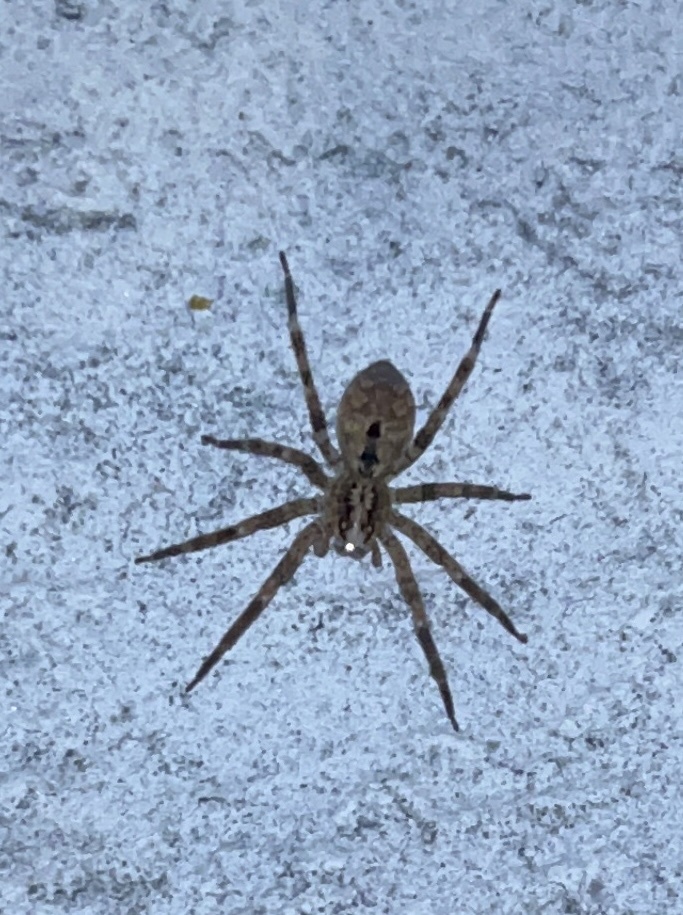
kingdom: Animalia
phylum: Arthropoda
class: Arachnida
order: Araneae
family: Zoropsidae
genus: Zoropsis
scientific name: Zoropsis spinimana
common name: Zoropsid spider
